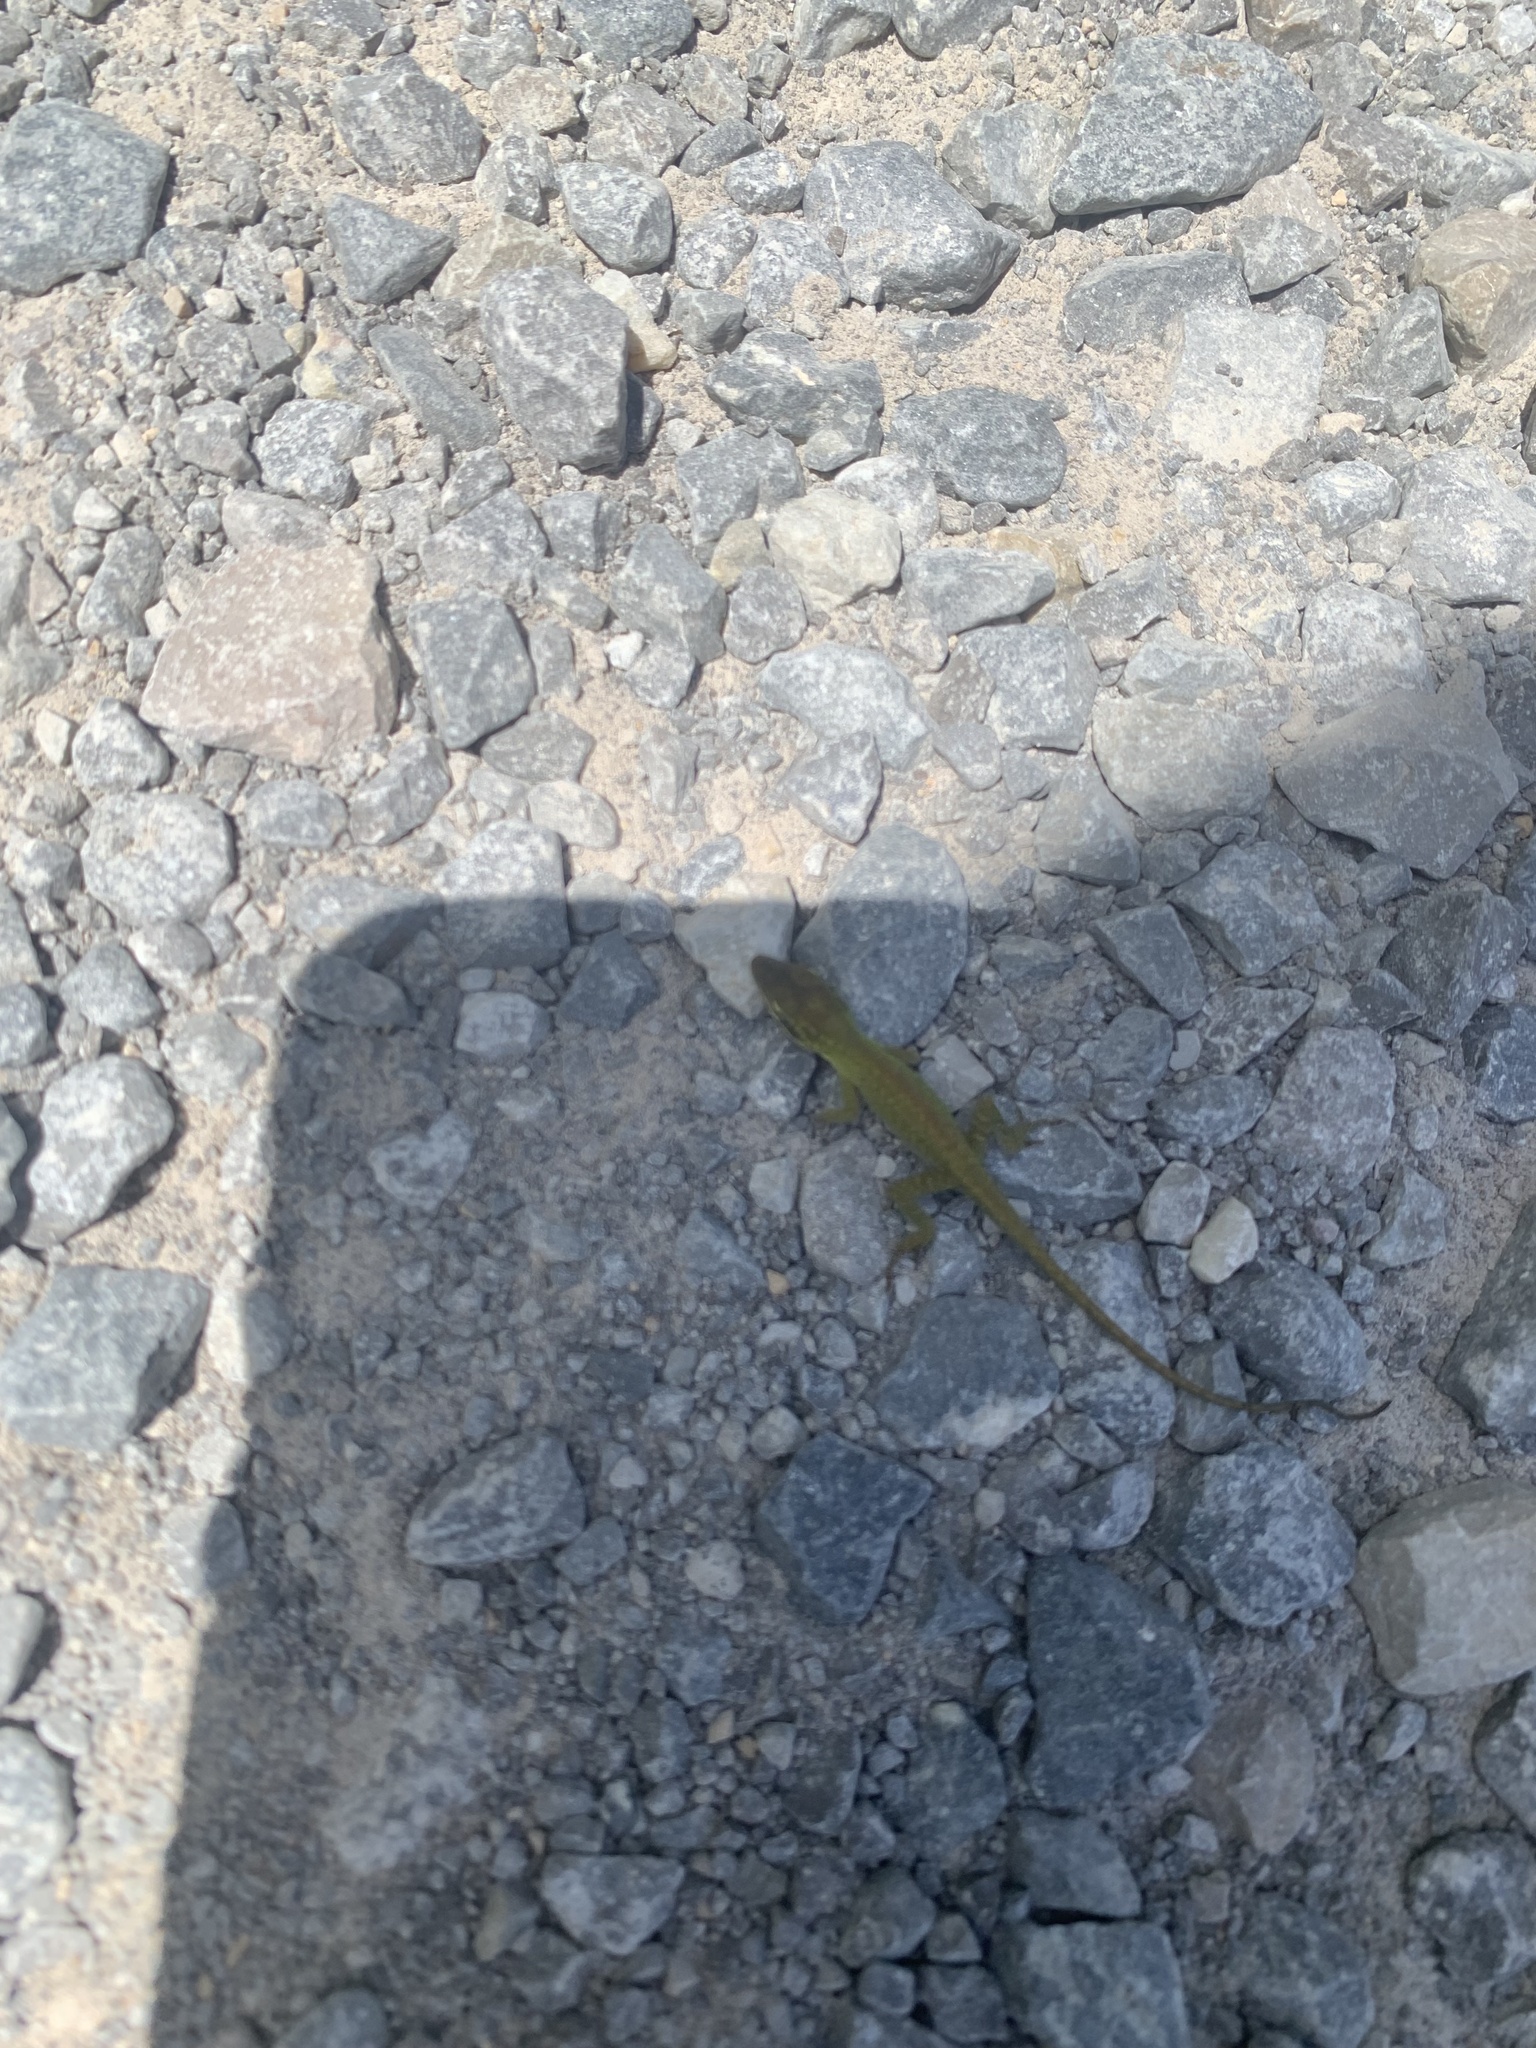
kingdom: Animalia
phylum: Chordata
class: Squamata
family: Dactyloidae
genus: Anolis
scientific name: Anolis carolinensis
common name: Green anole
